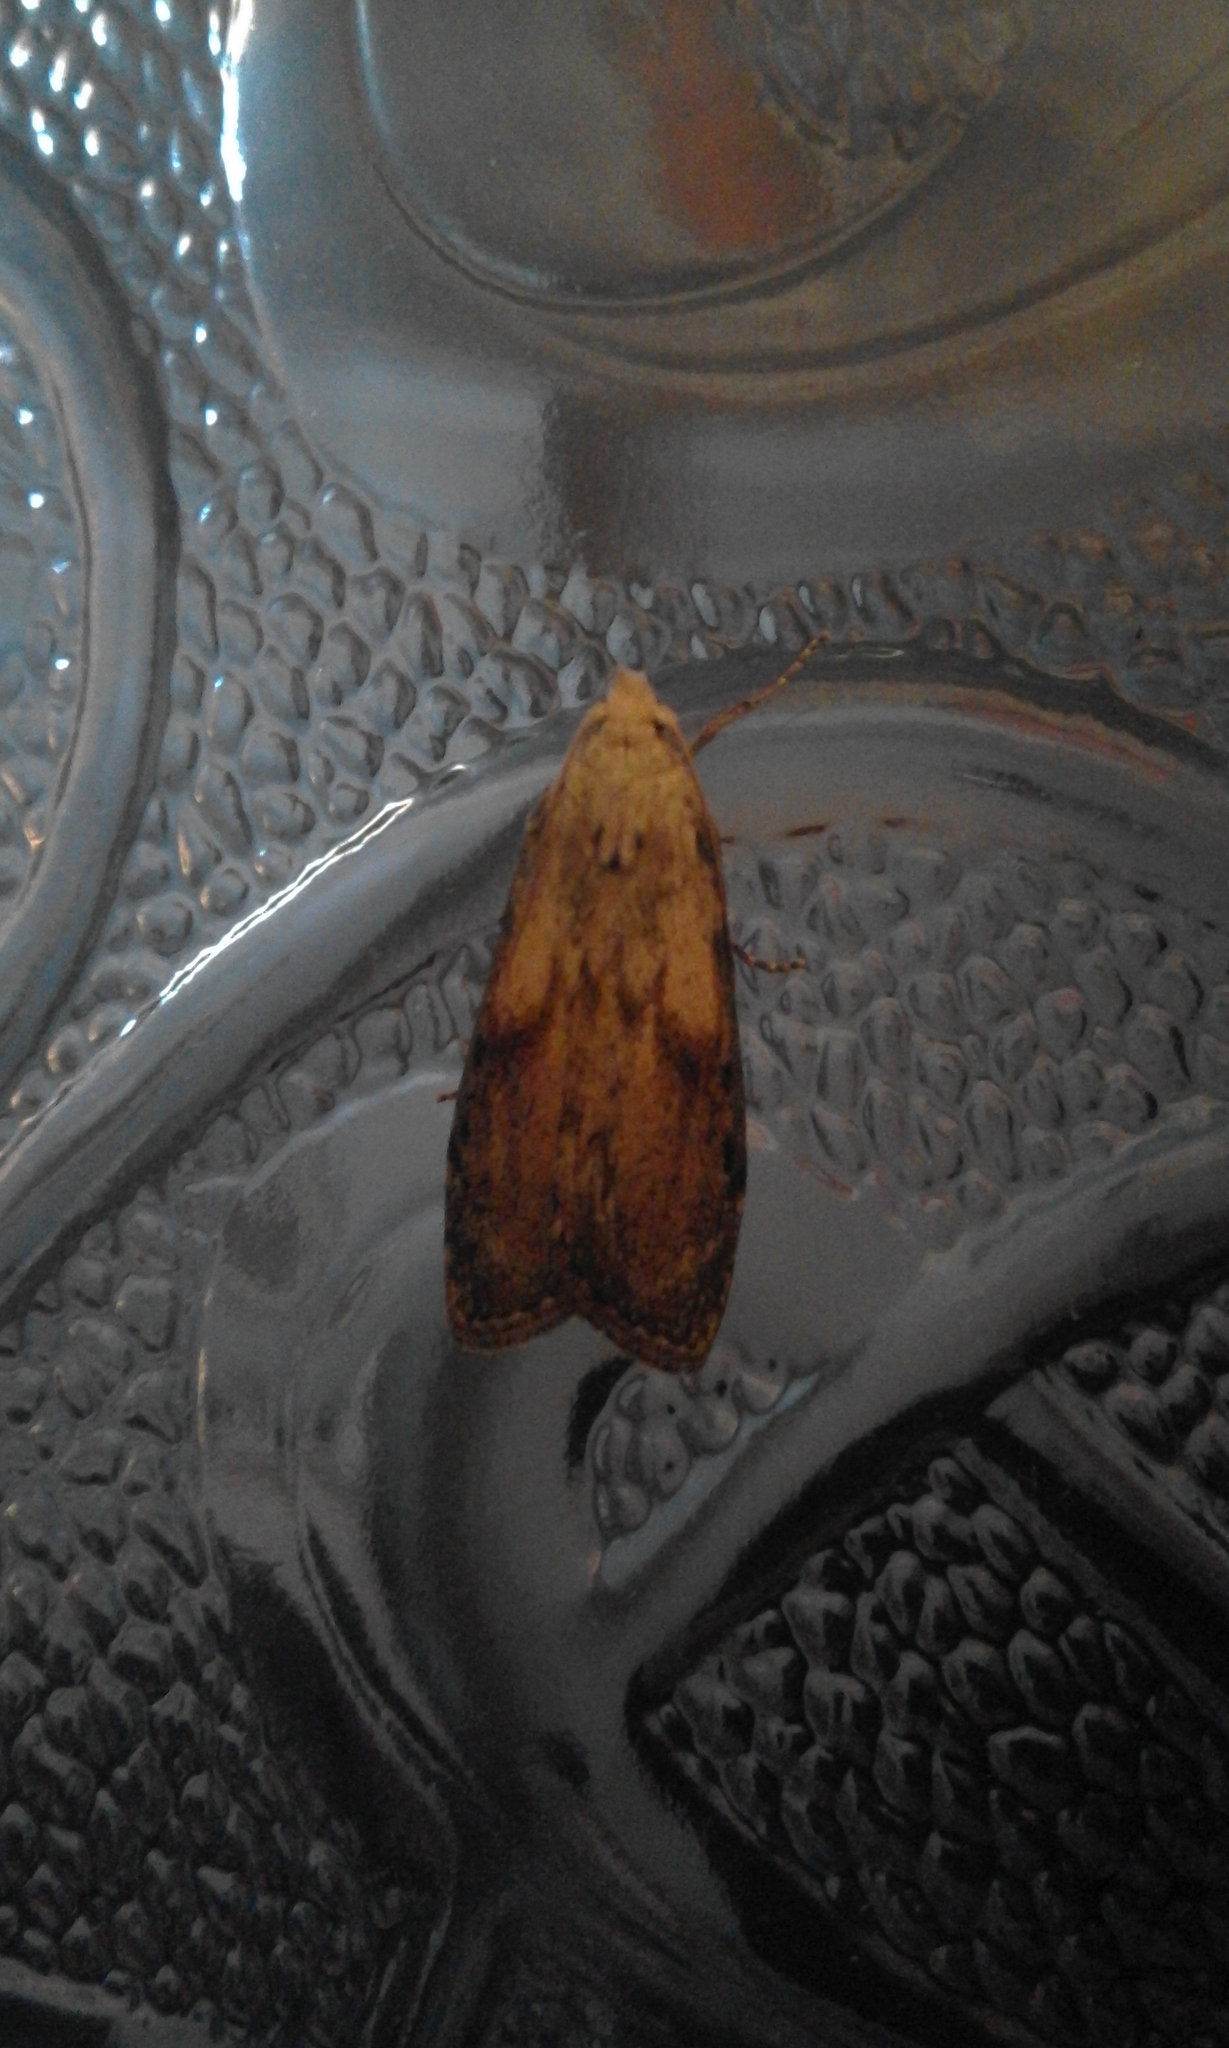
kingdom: Animalia
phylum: Arthropoda
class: Insecta
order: Lepidoptera
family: Pyralidae
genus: Aphomia
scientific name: Aphomia sociella
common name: Bee moth
